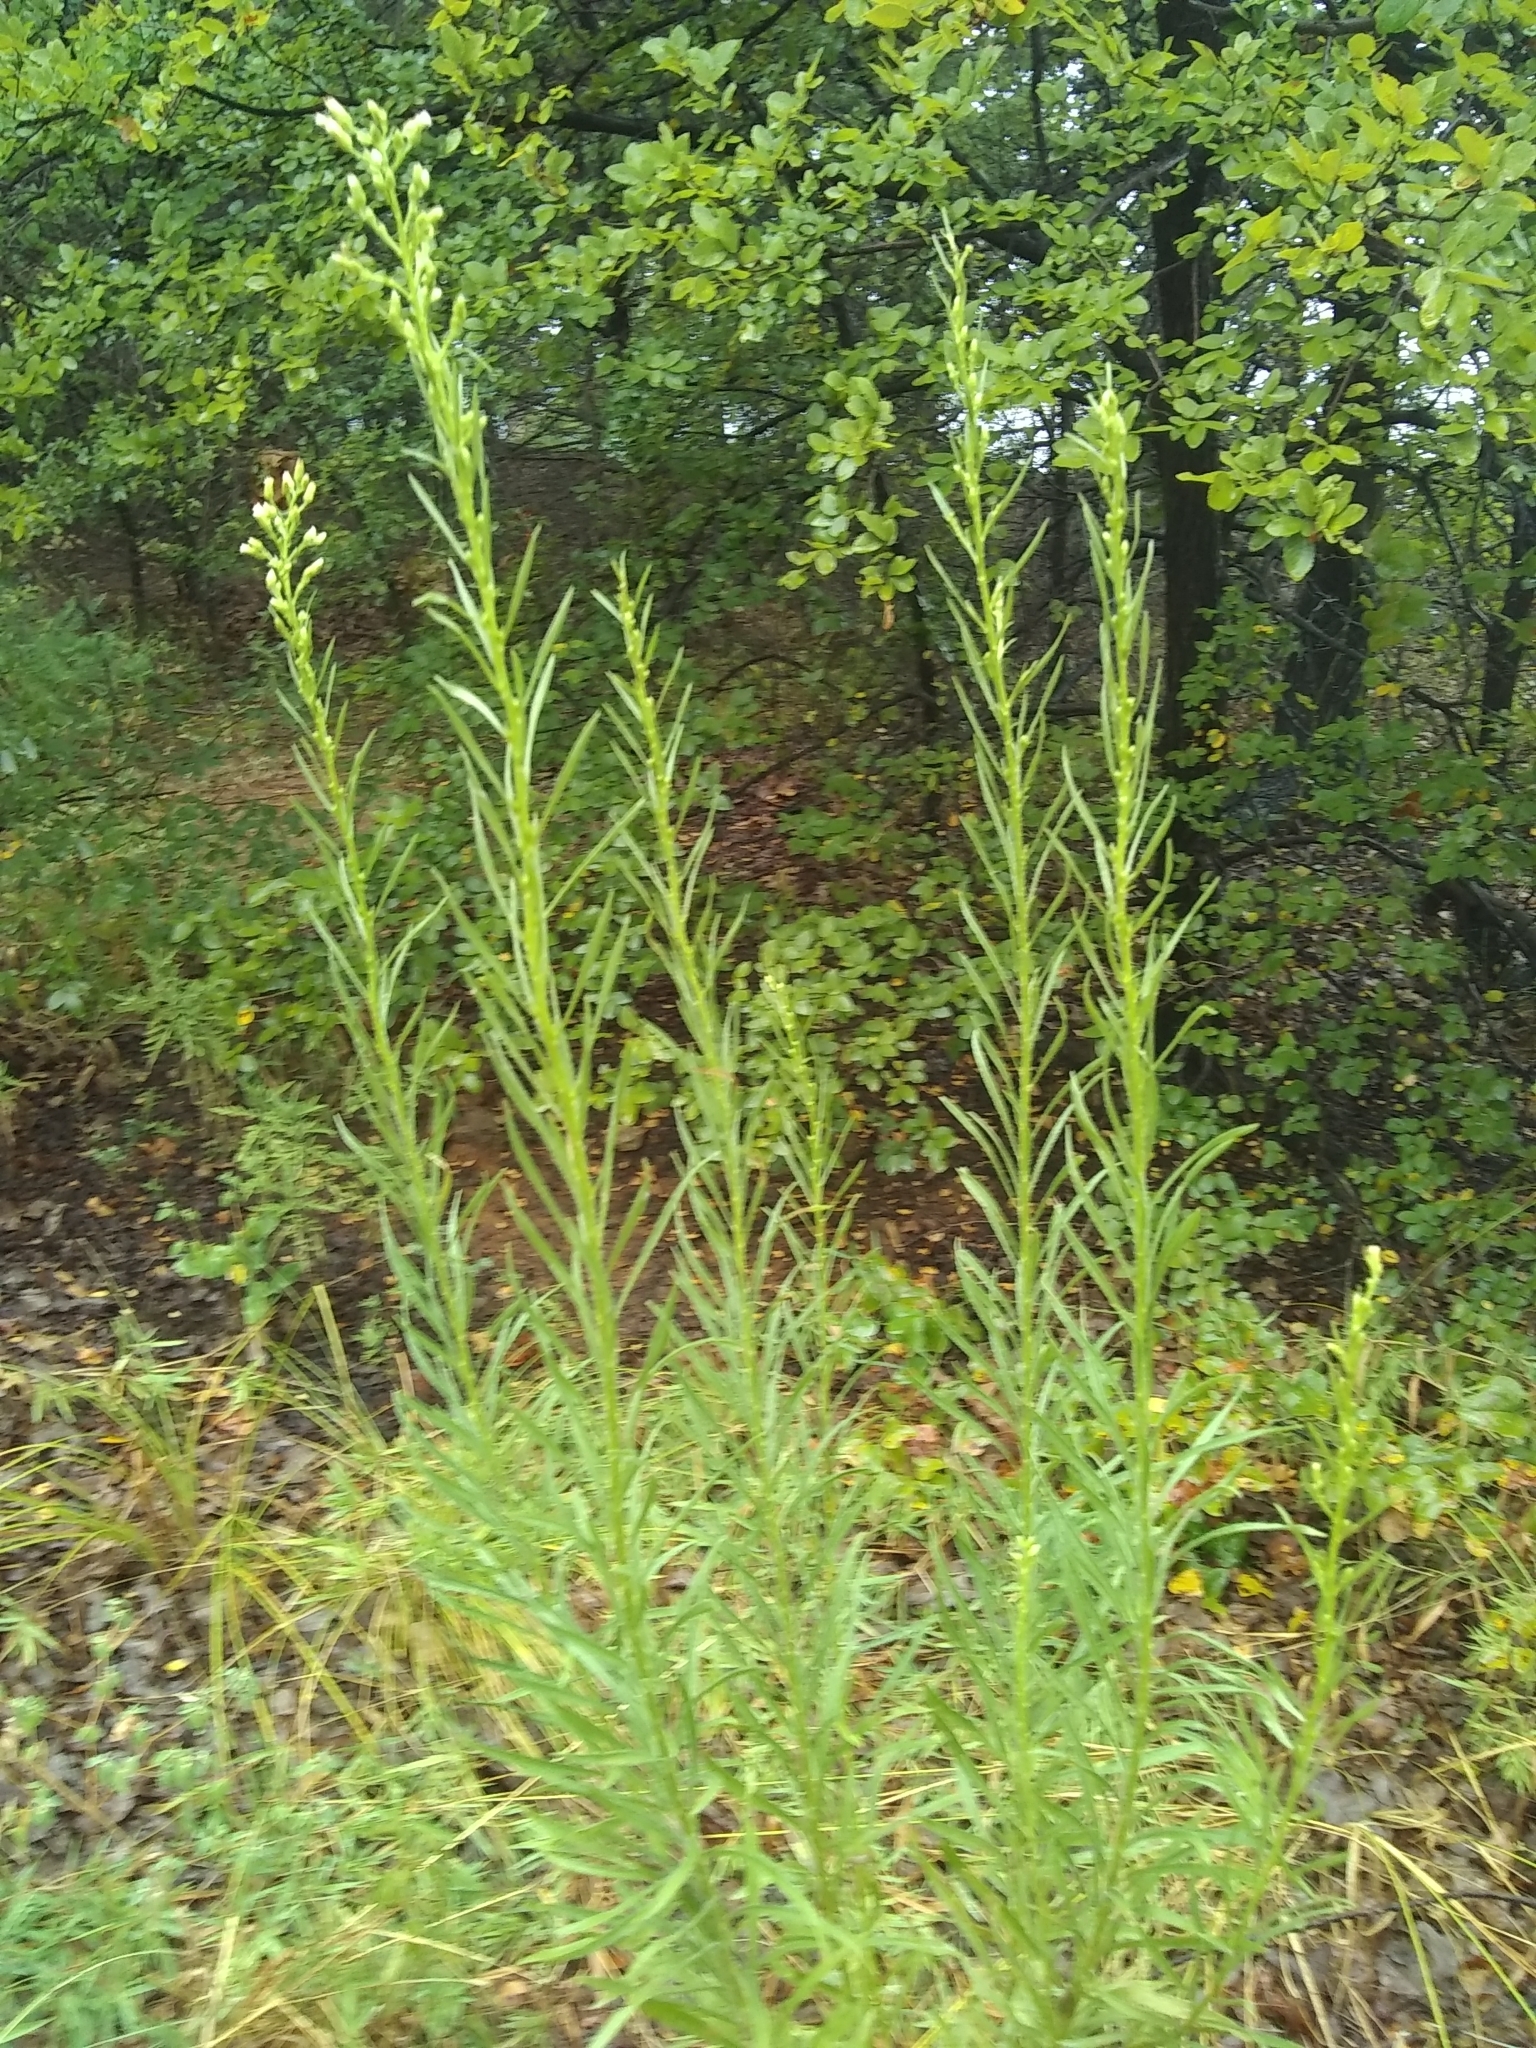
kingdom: Plantae
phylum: Tracheophyta
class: Magnoliopsida
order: Asterales
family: Asteraceae
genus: Erigeron
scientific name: Erigeron canadensis
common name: Canadian fleabane
